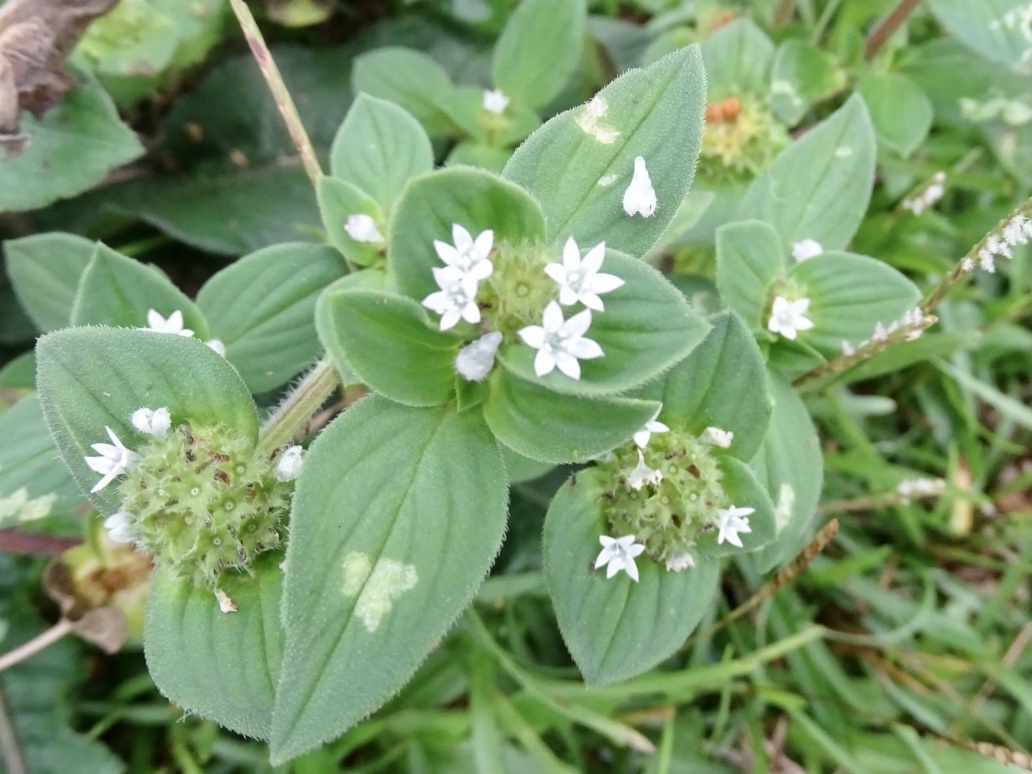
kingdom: Plantae
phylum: Tracheophyta
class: Magnoliopsida
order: Gentianales
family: Rubiaceae
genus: Richardia
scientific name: Richardia scabra
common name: Rough mexican clover
